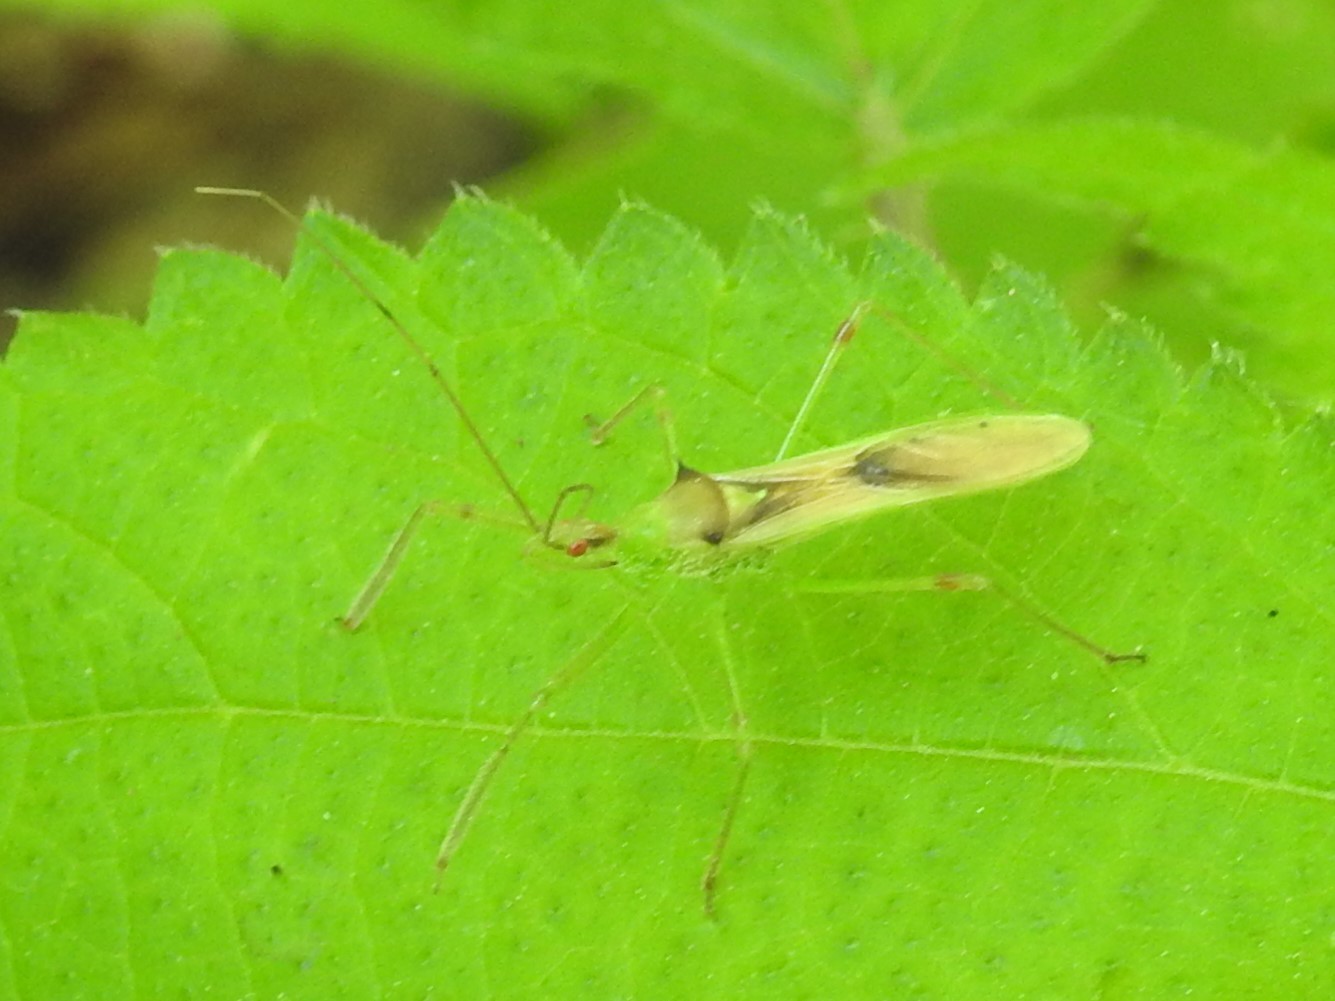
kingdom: Animalia
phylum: Arthropoda
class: Insecta
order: Hemiptera
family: Reduviidae
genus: Zelus
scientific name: Zelus luridus
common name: Pale green assassin bug
